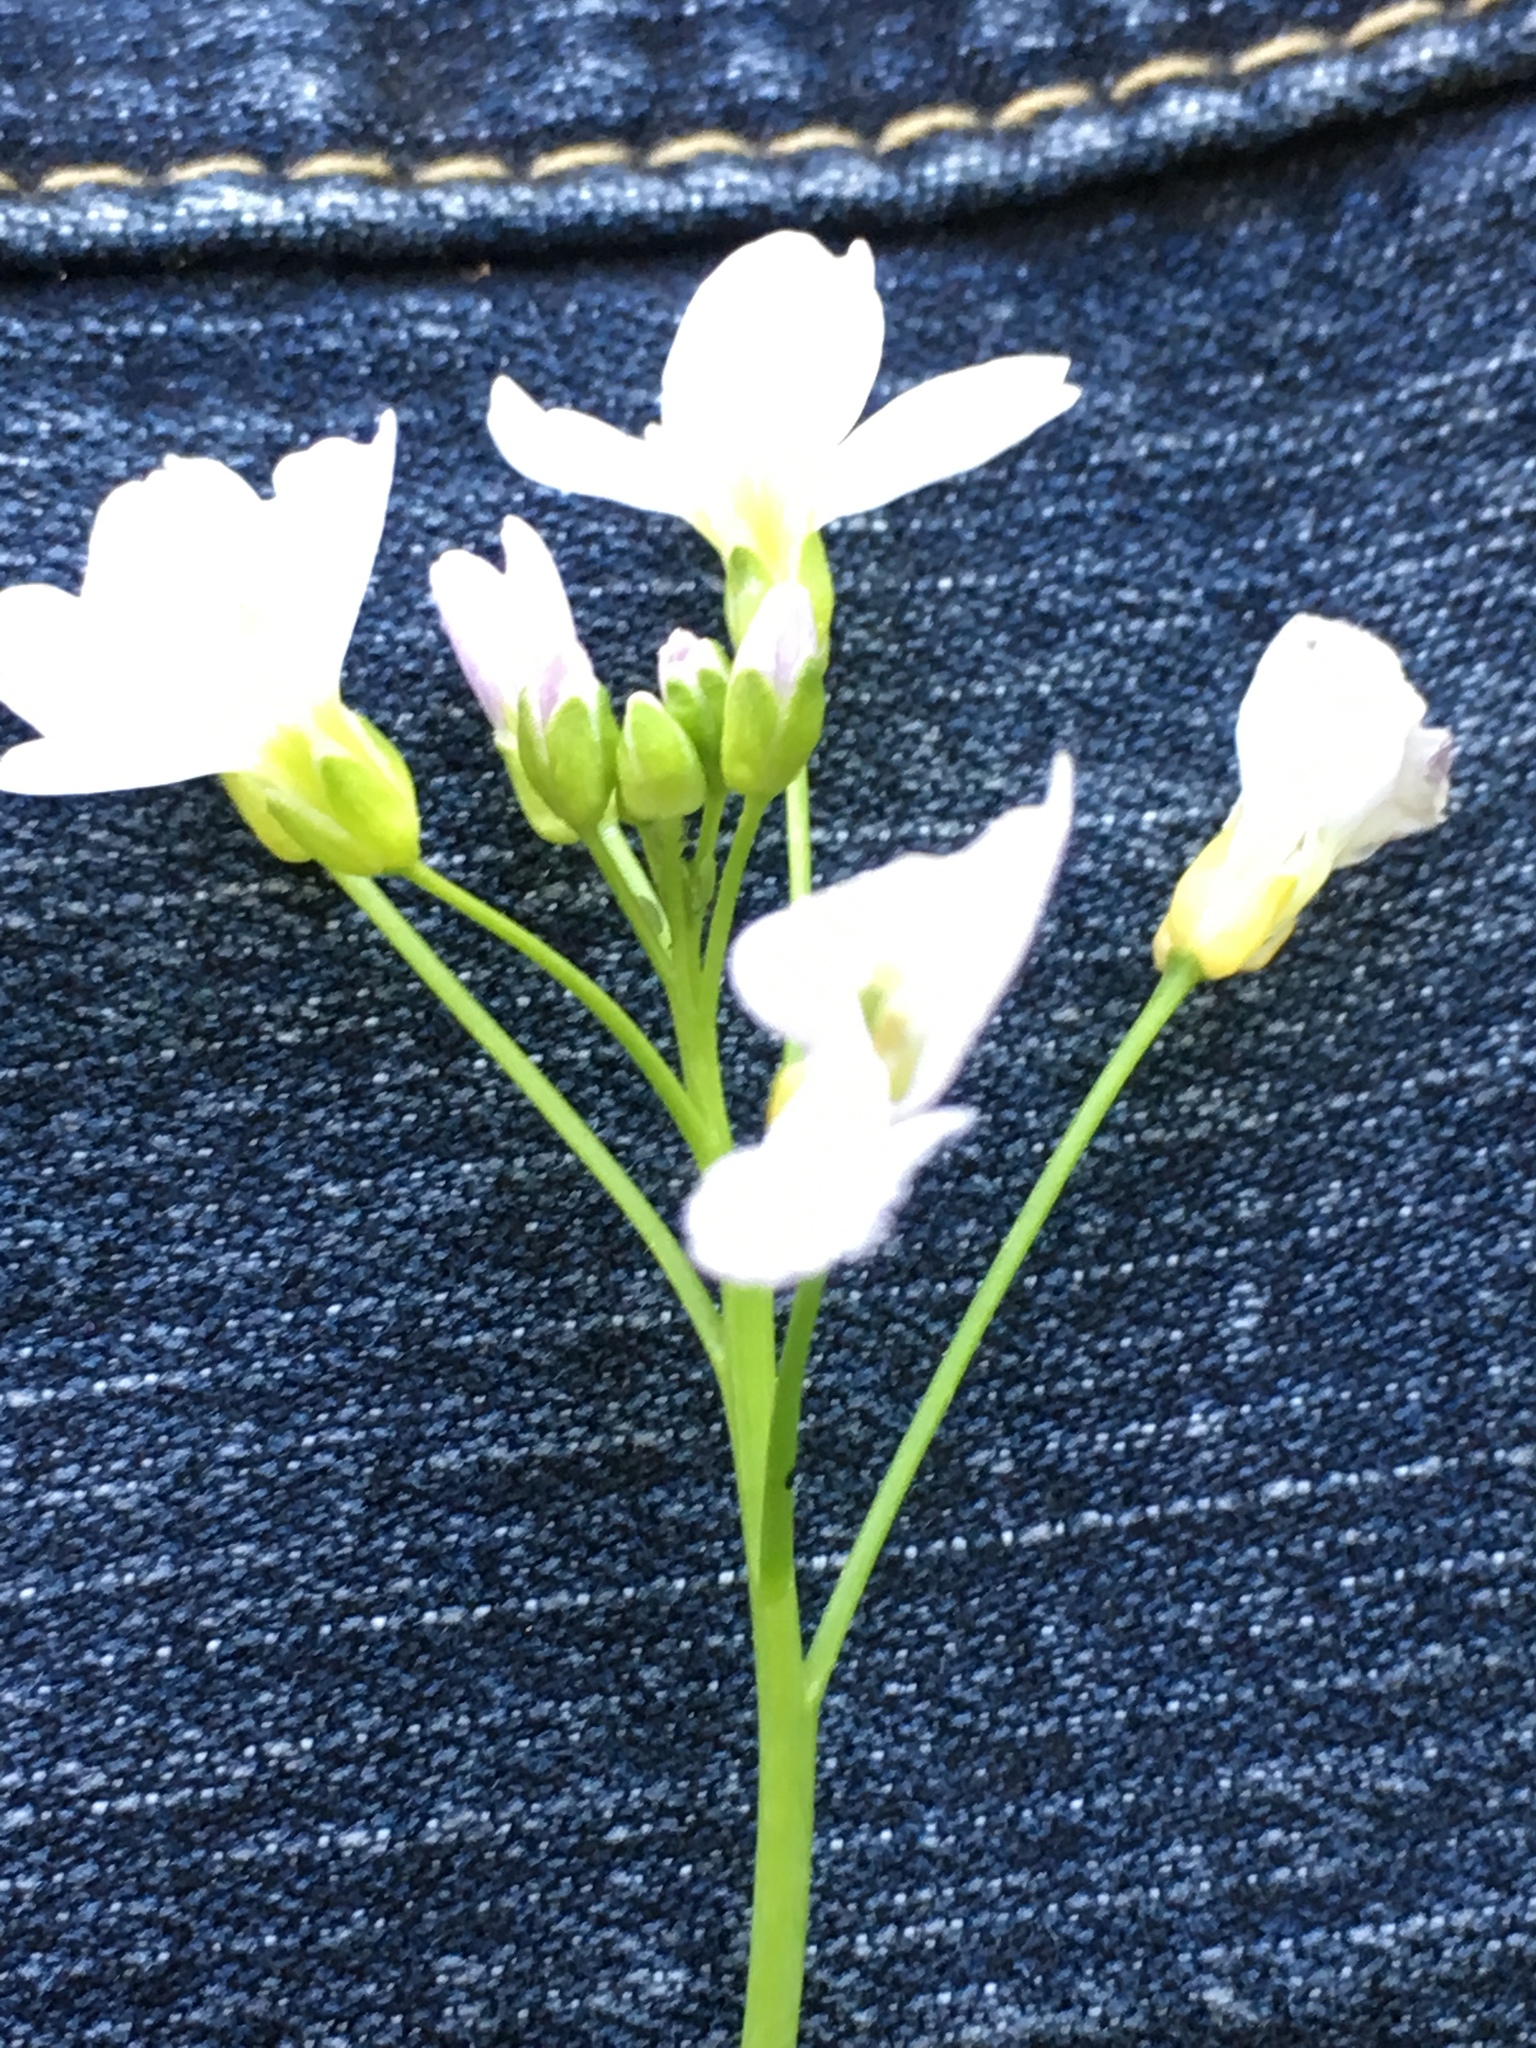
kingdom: Plantae
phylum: Tracheophyta
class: Magnoliopsida
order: Brassicales
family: Brassicaceae
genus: Cardamine
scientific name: Cardamine pratensis
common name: Cuckoo flower
